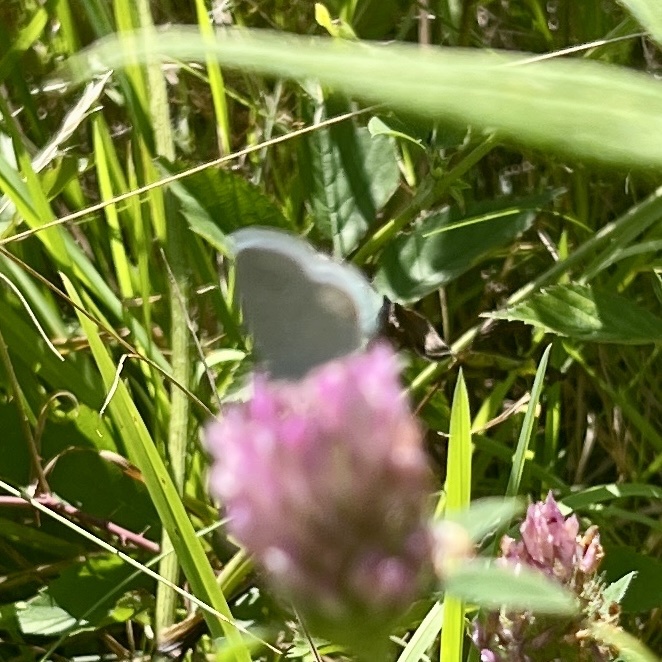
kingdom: Plantae
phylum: Tracheophyta
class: Magnoliopsida
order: Fabales
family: Fabaceae
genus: Trifolium
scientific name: Trifolium pratense
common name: Red clover
